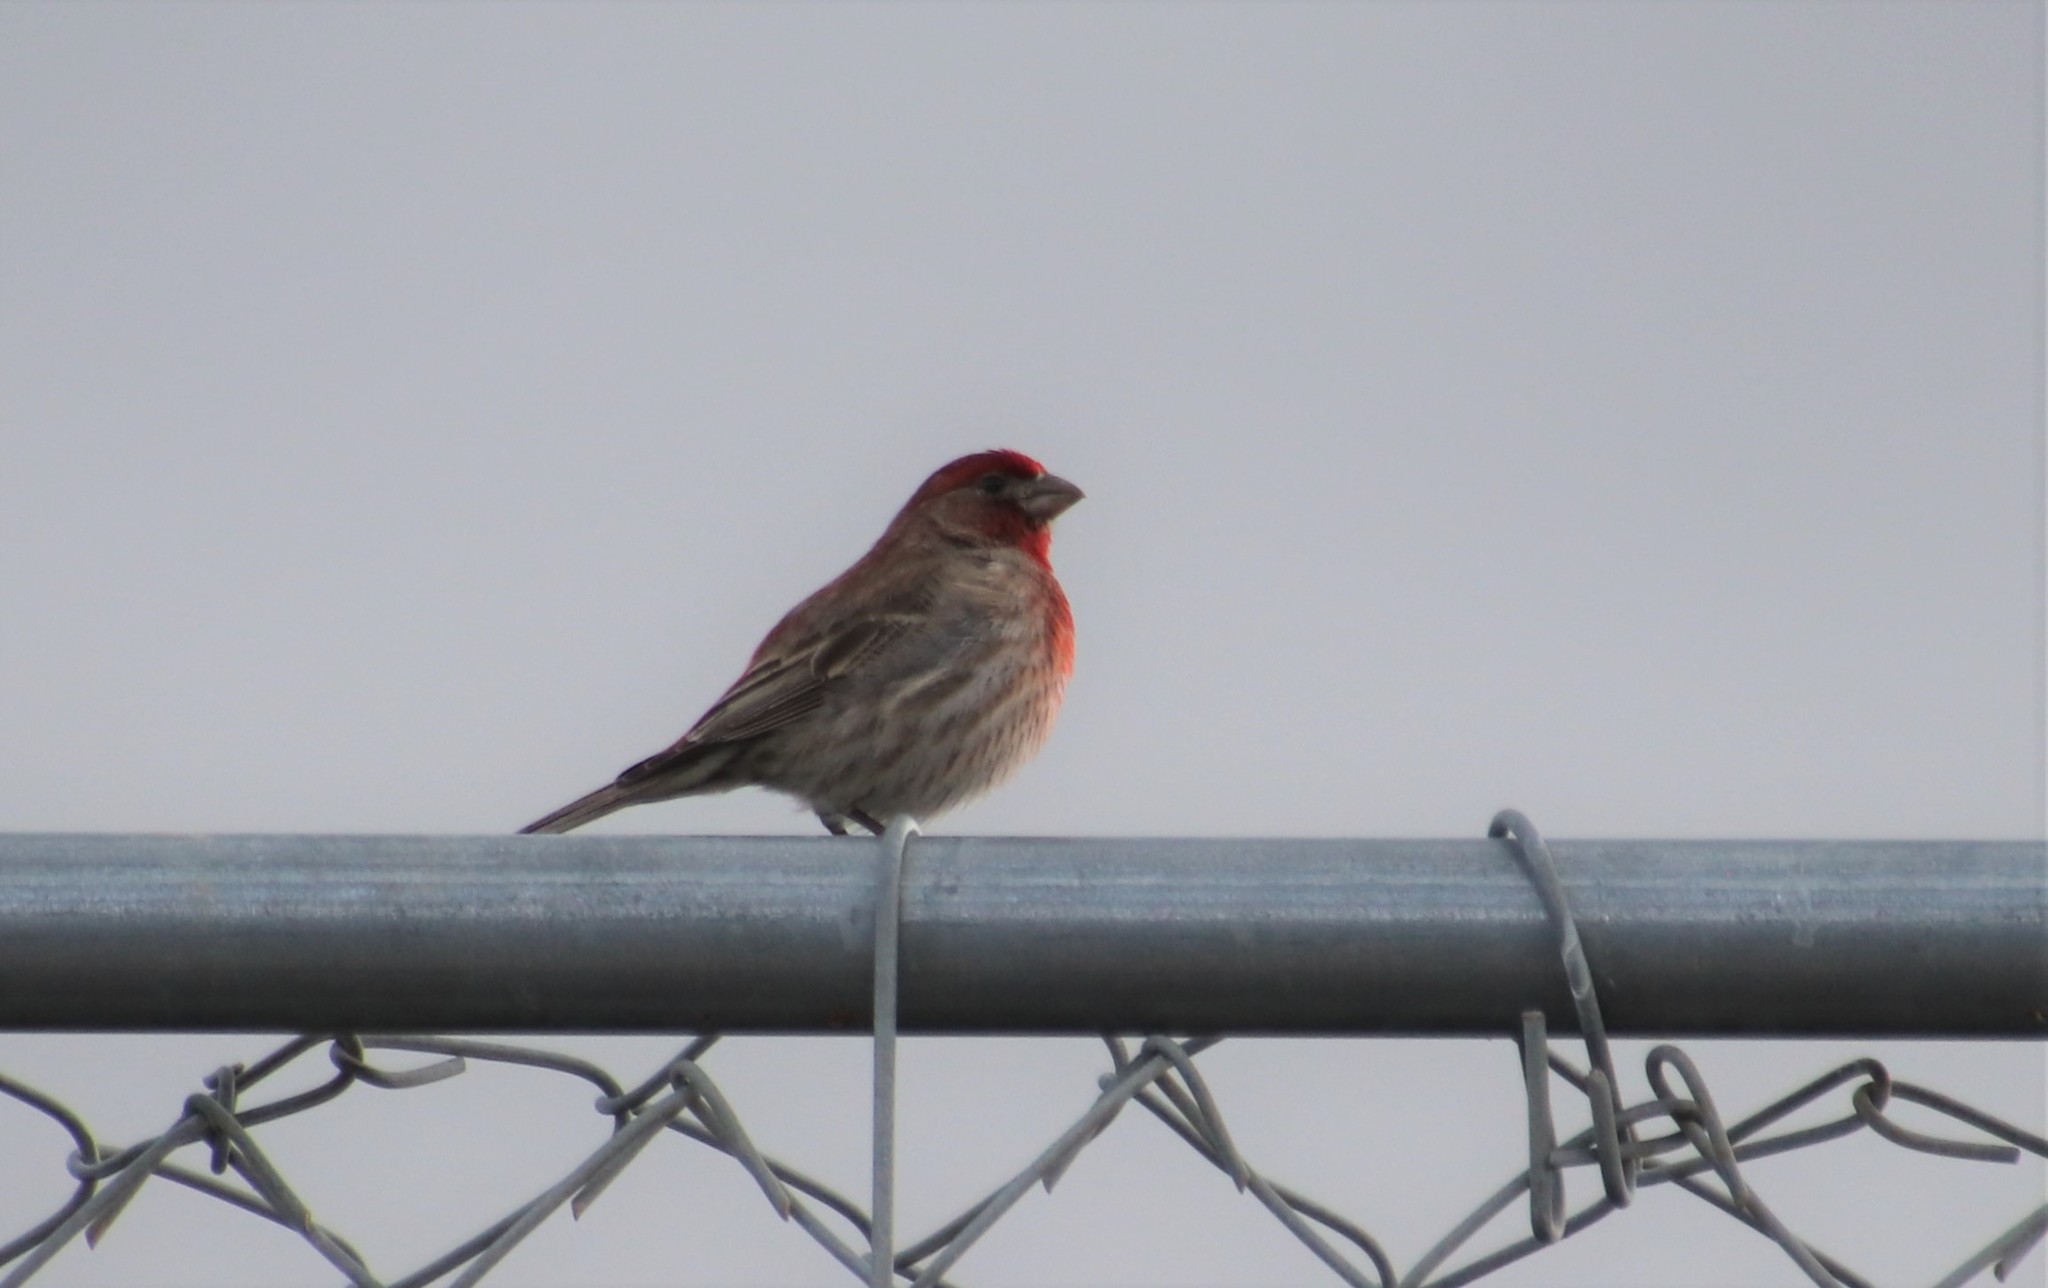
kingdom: Animalia
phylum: Chordata
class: Aves
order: Passeriformes
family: Fringillidae
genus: Haemorhous
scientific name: Haemorhous mexicanus
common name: House finch
